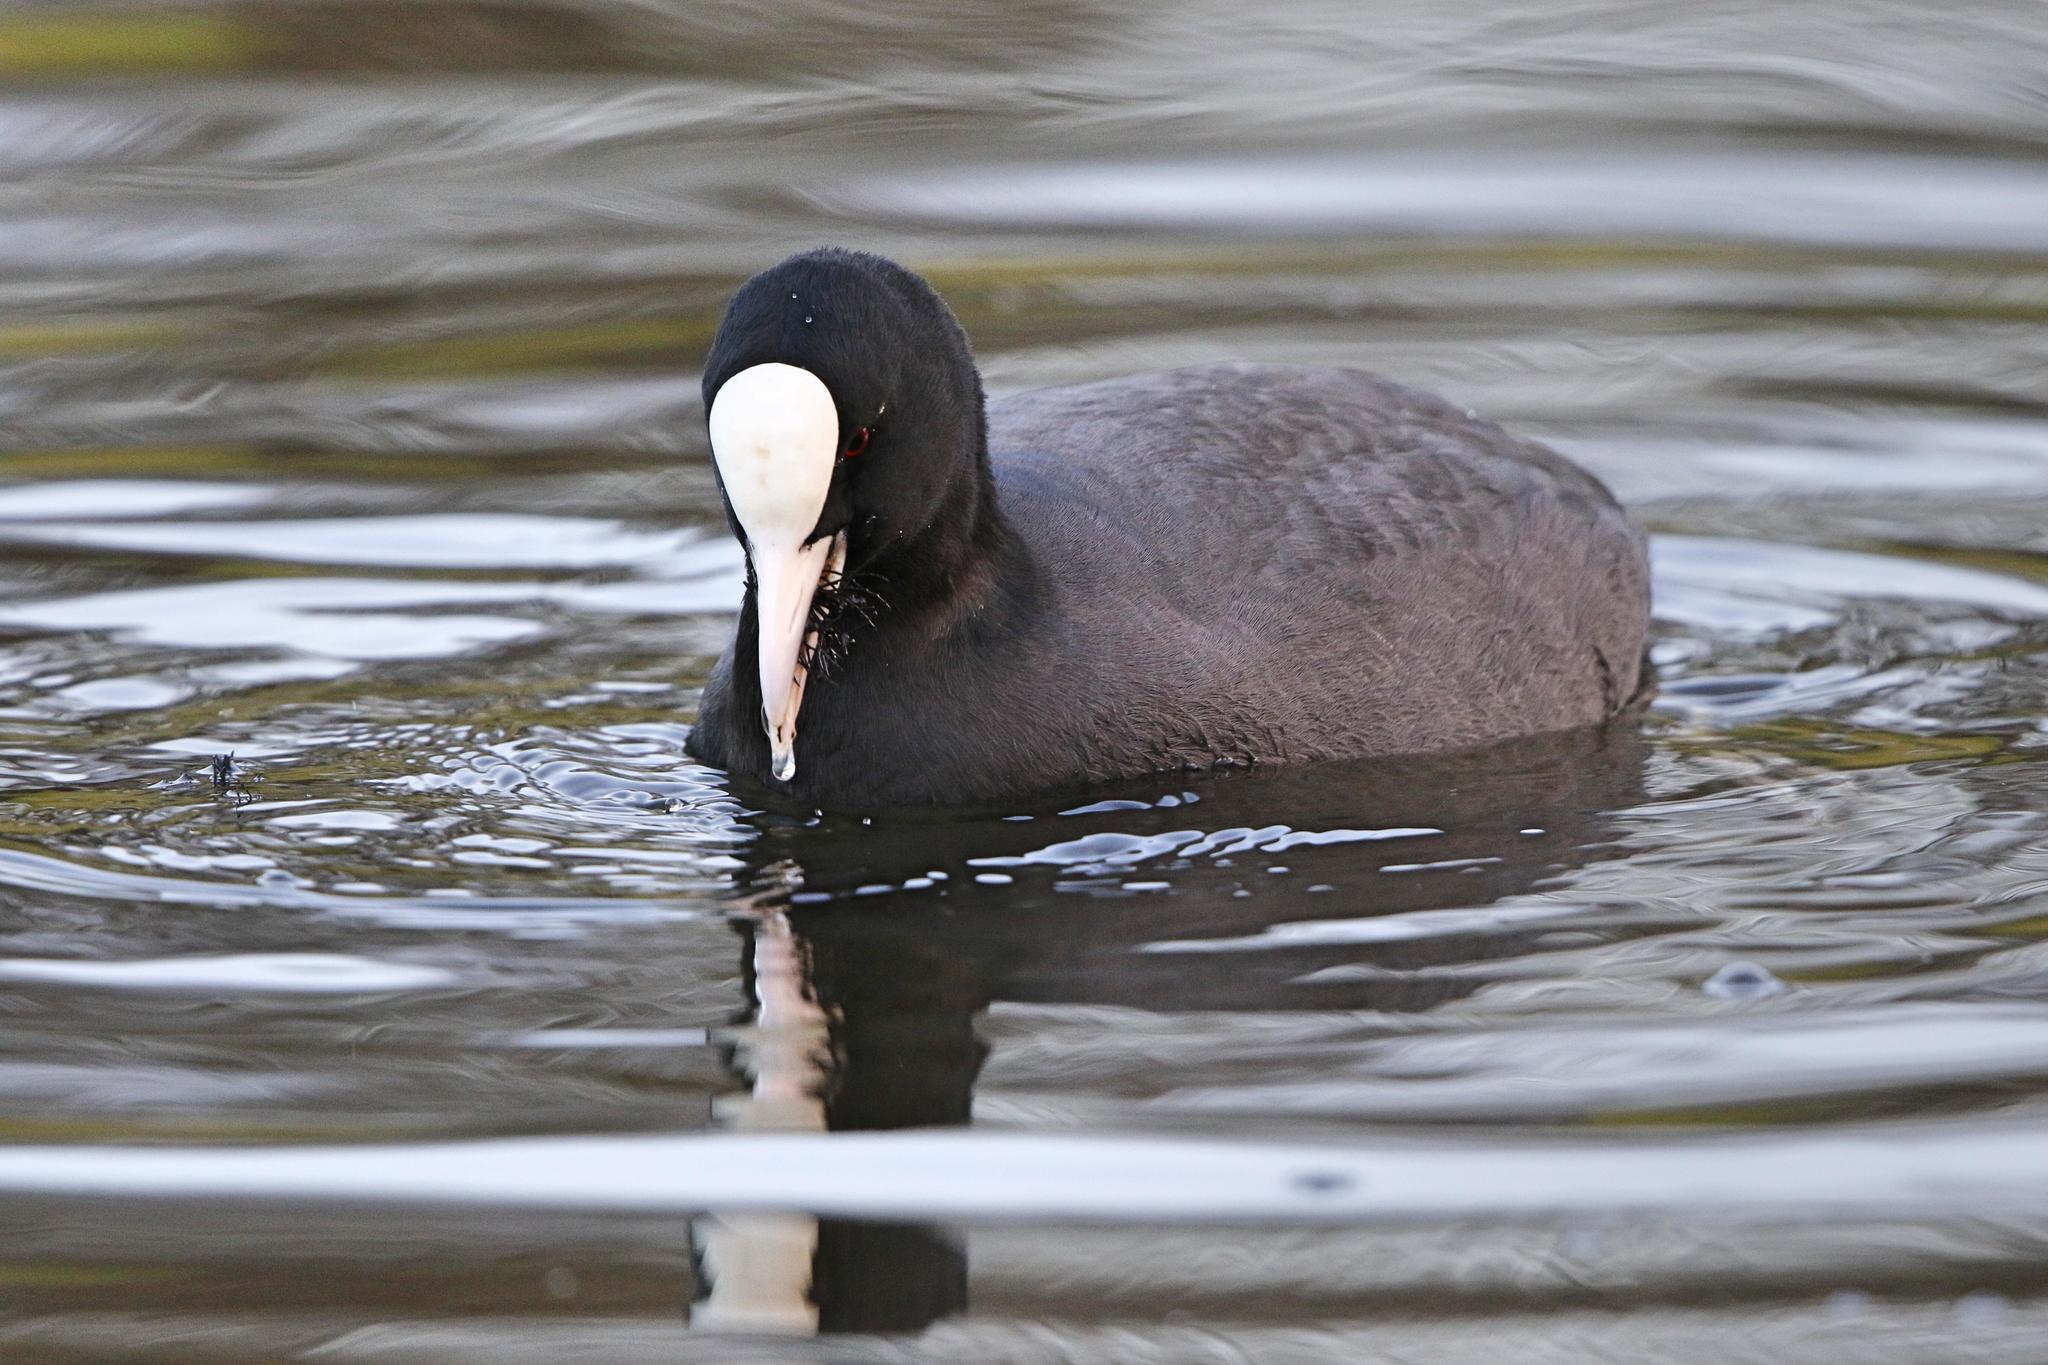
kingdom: Animalia
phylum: Chordata
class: Aves
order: Gruiformes
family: Rallidae
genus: Fulica
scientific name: Fulica atra
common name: Eurasian coot
